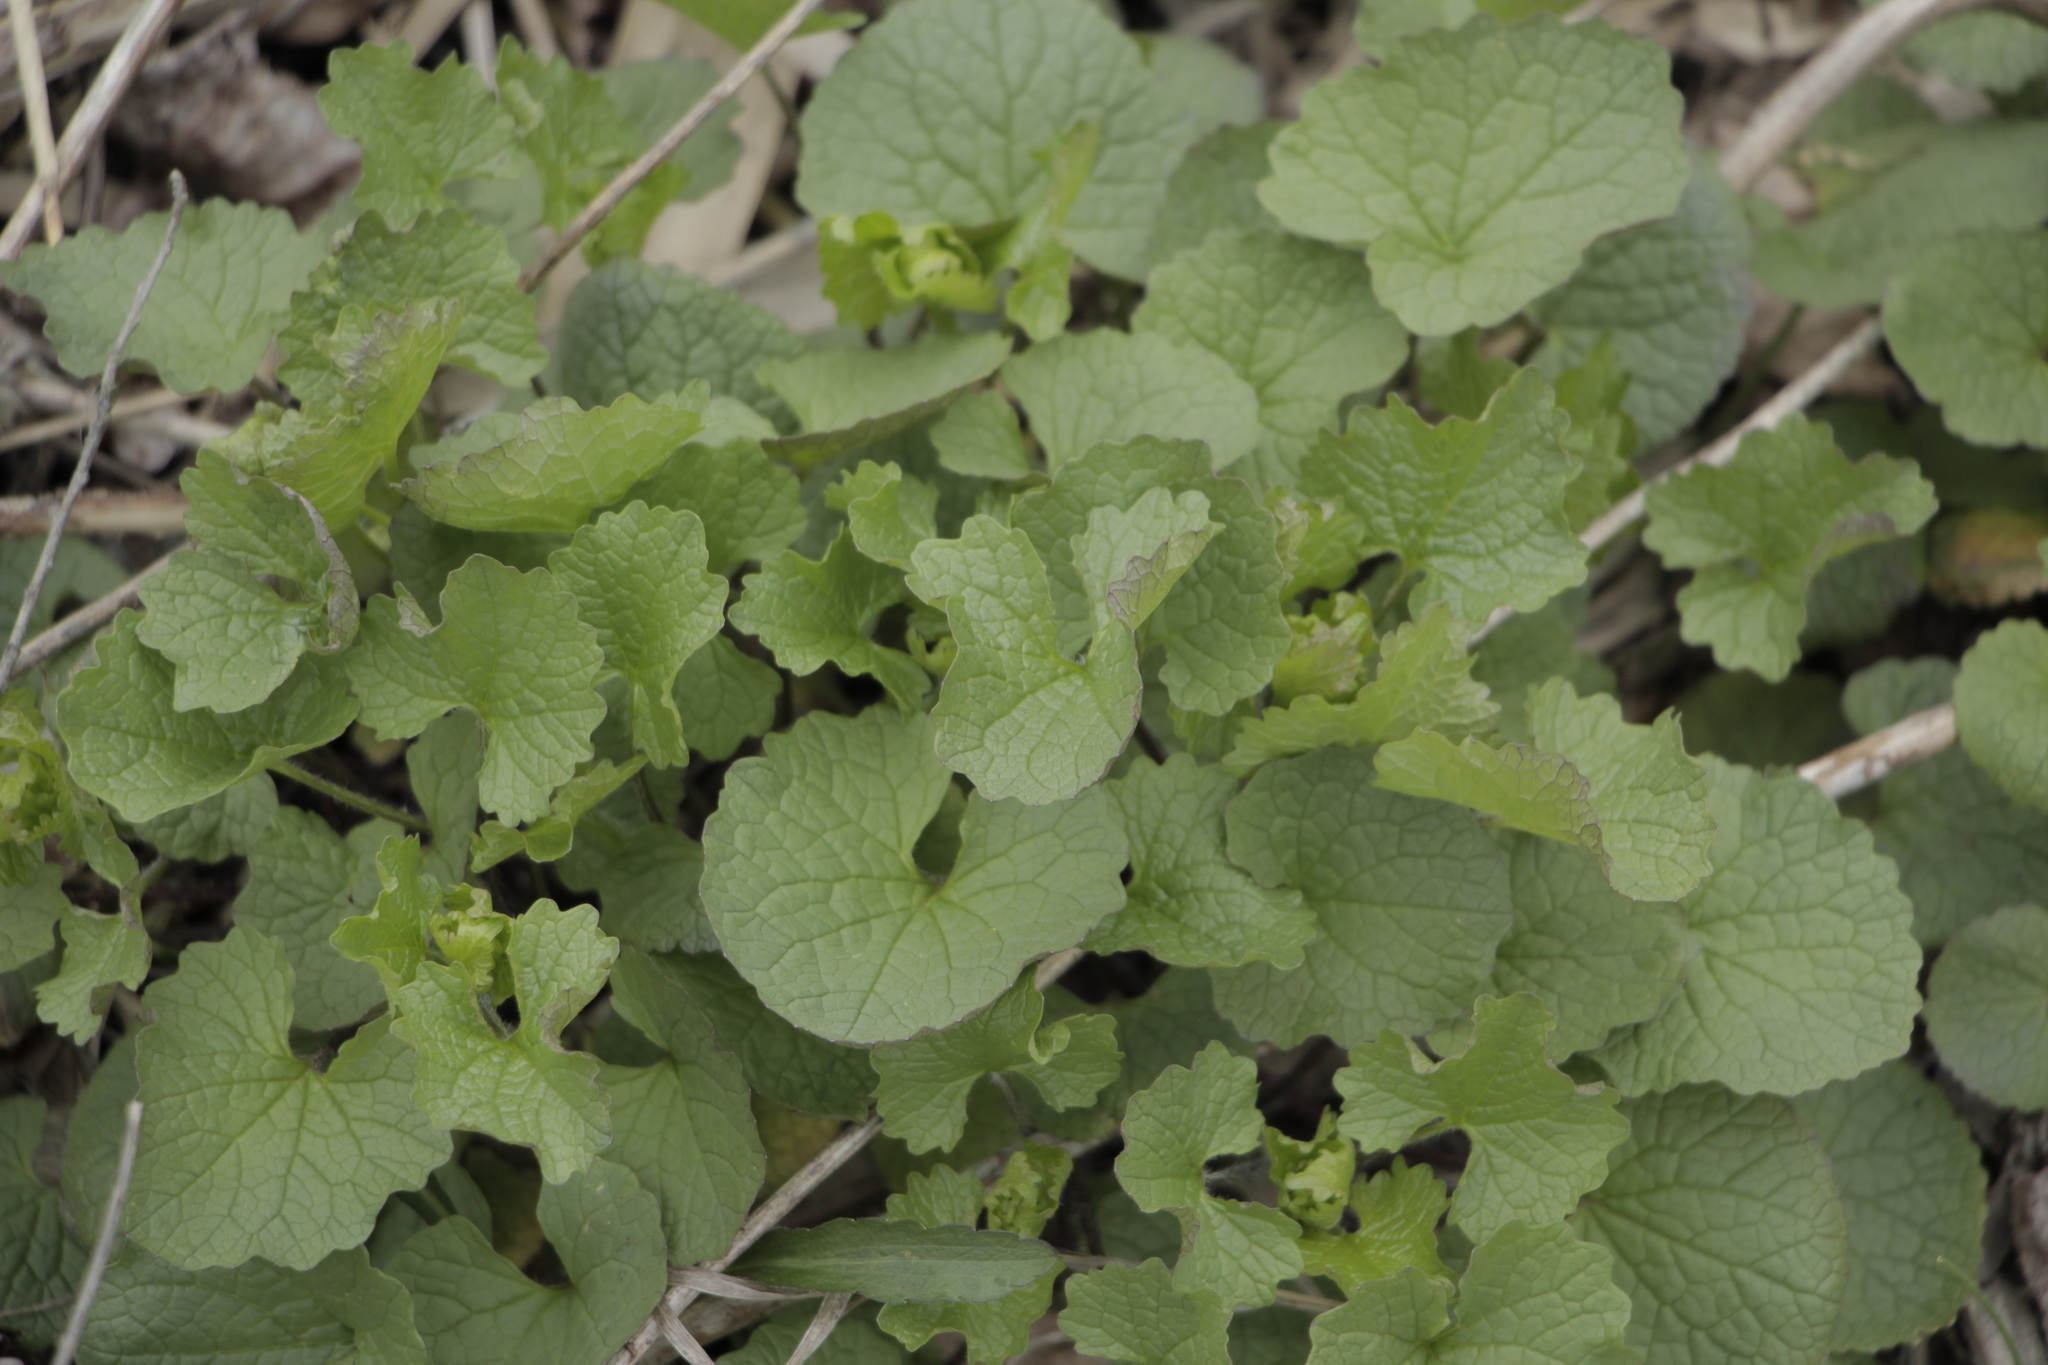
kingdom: Plantae
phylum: Tracheophyta
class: Magnoliopsida
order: Brassicales
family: Brassicaceae
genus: Alliaria
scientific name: Alliaria petiolata
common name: Garlic mustard
